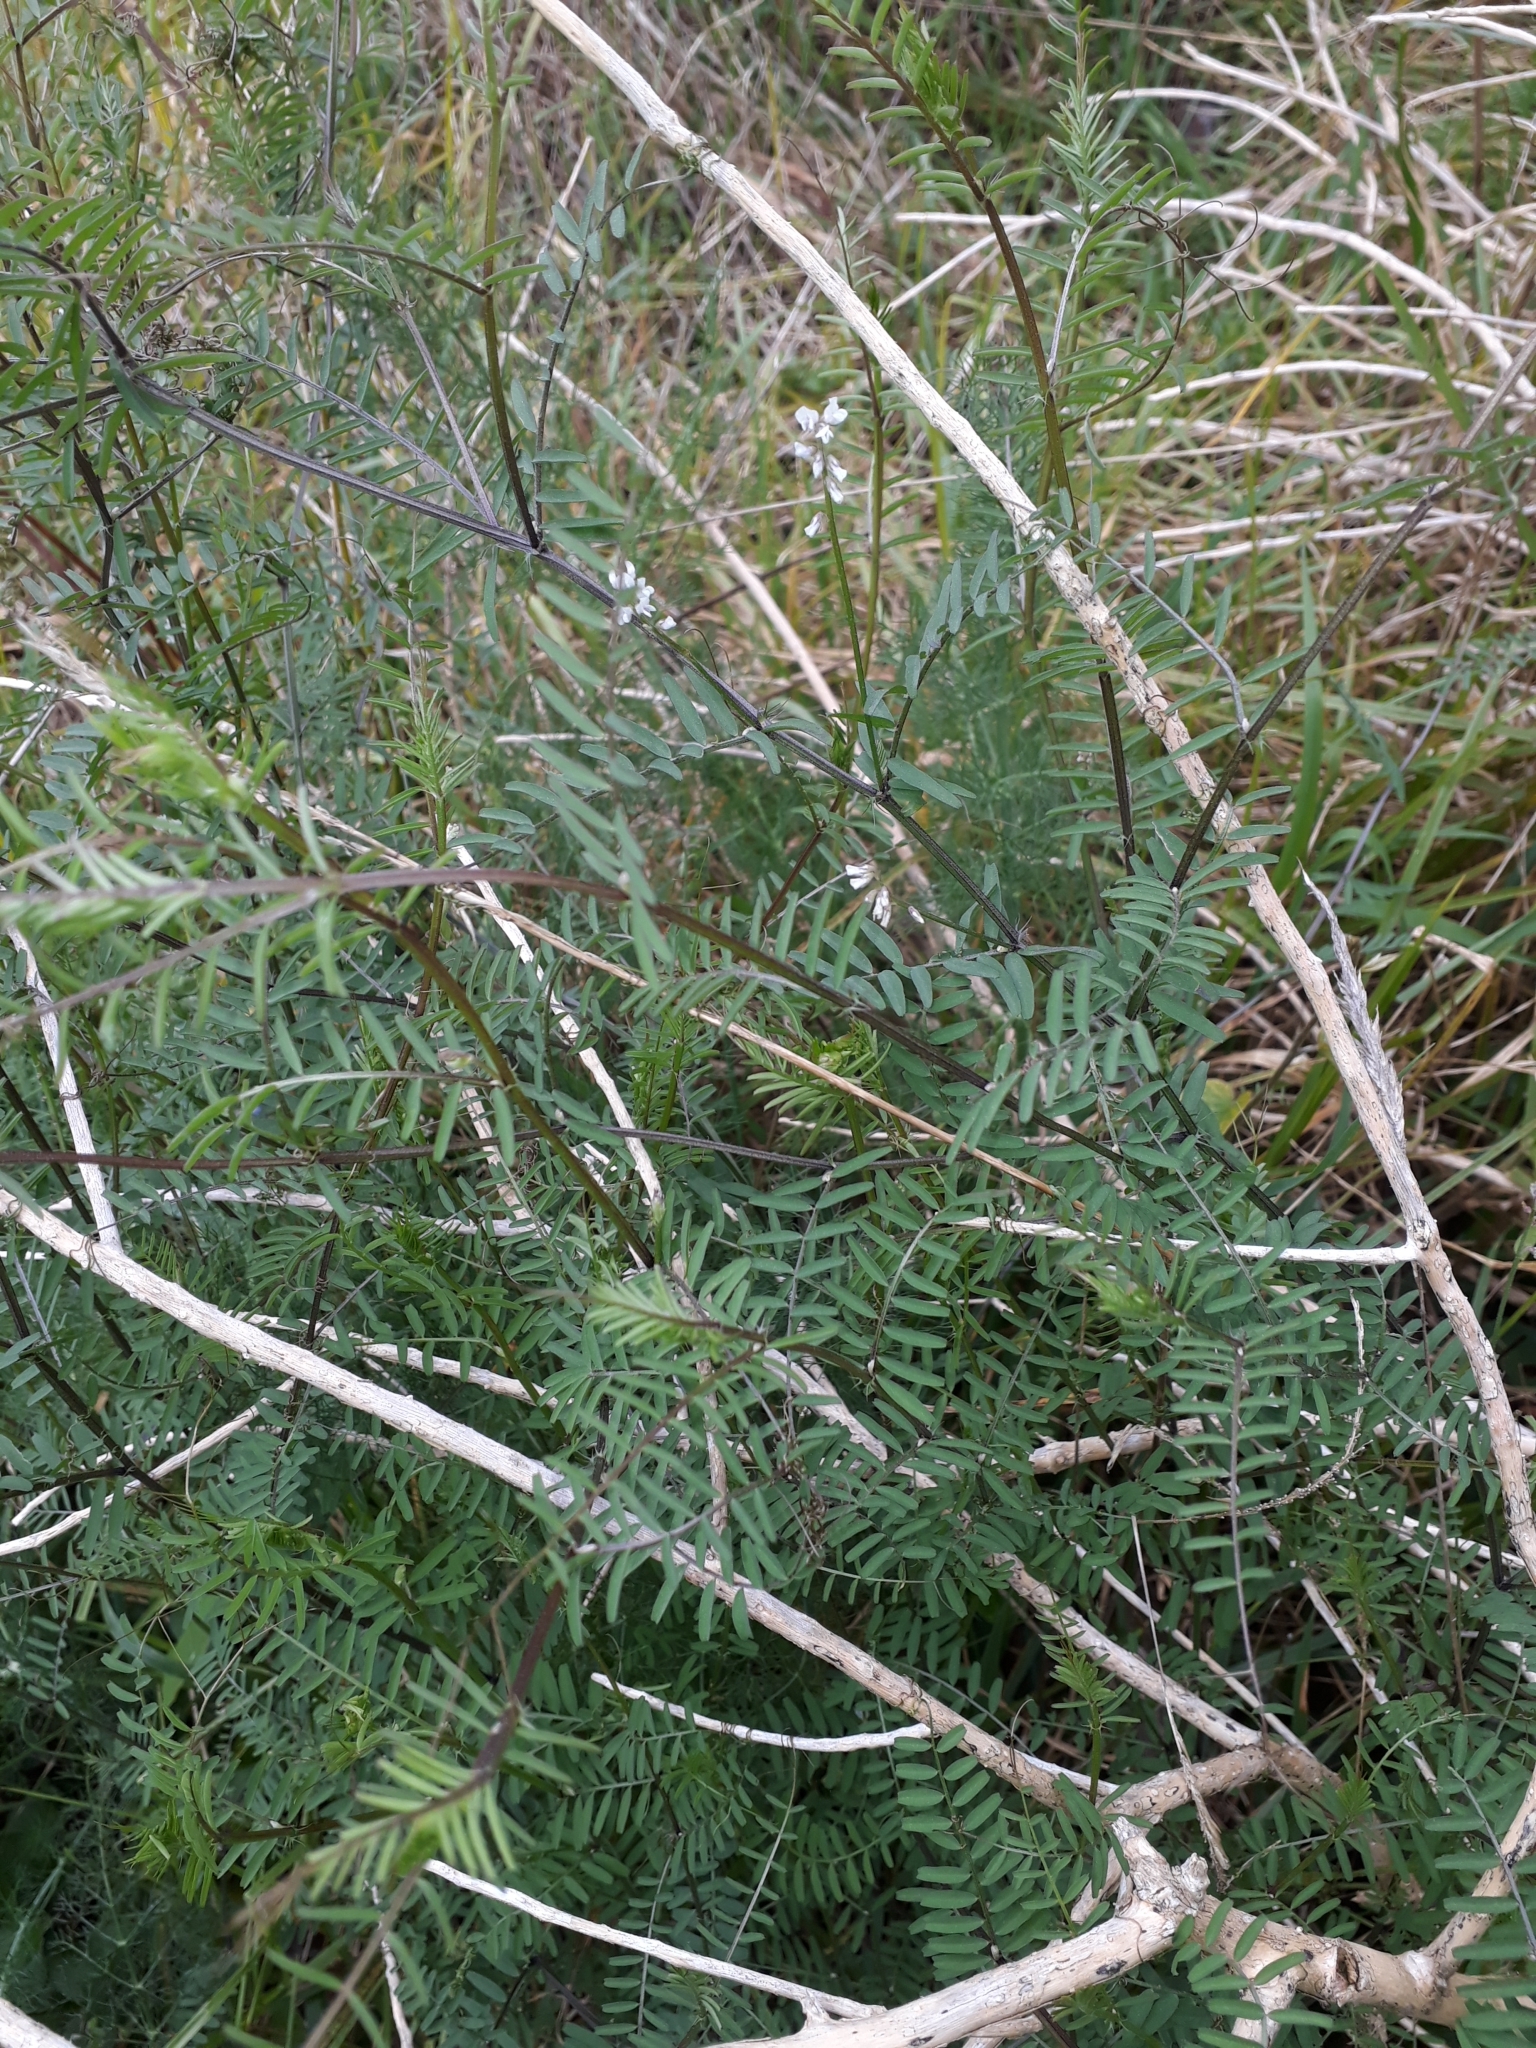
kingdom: Plantae
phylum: Tracheophyta
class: Magnoliopsida
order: Fabales
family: Fabaceae
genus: Vicia
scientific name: Vicia hirsuta
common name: Tiny vetch
